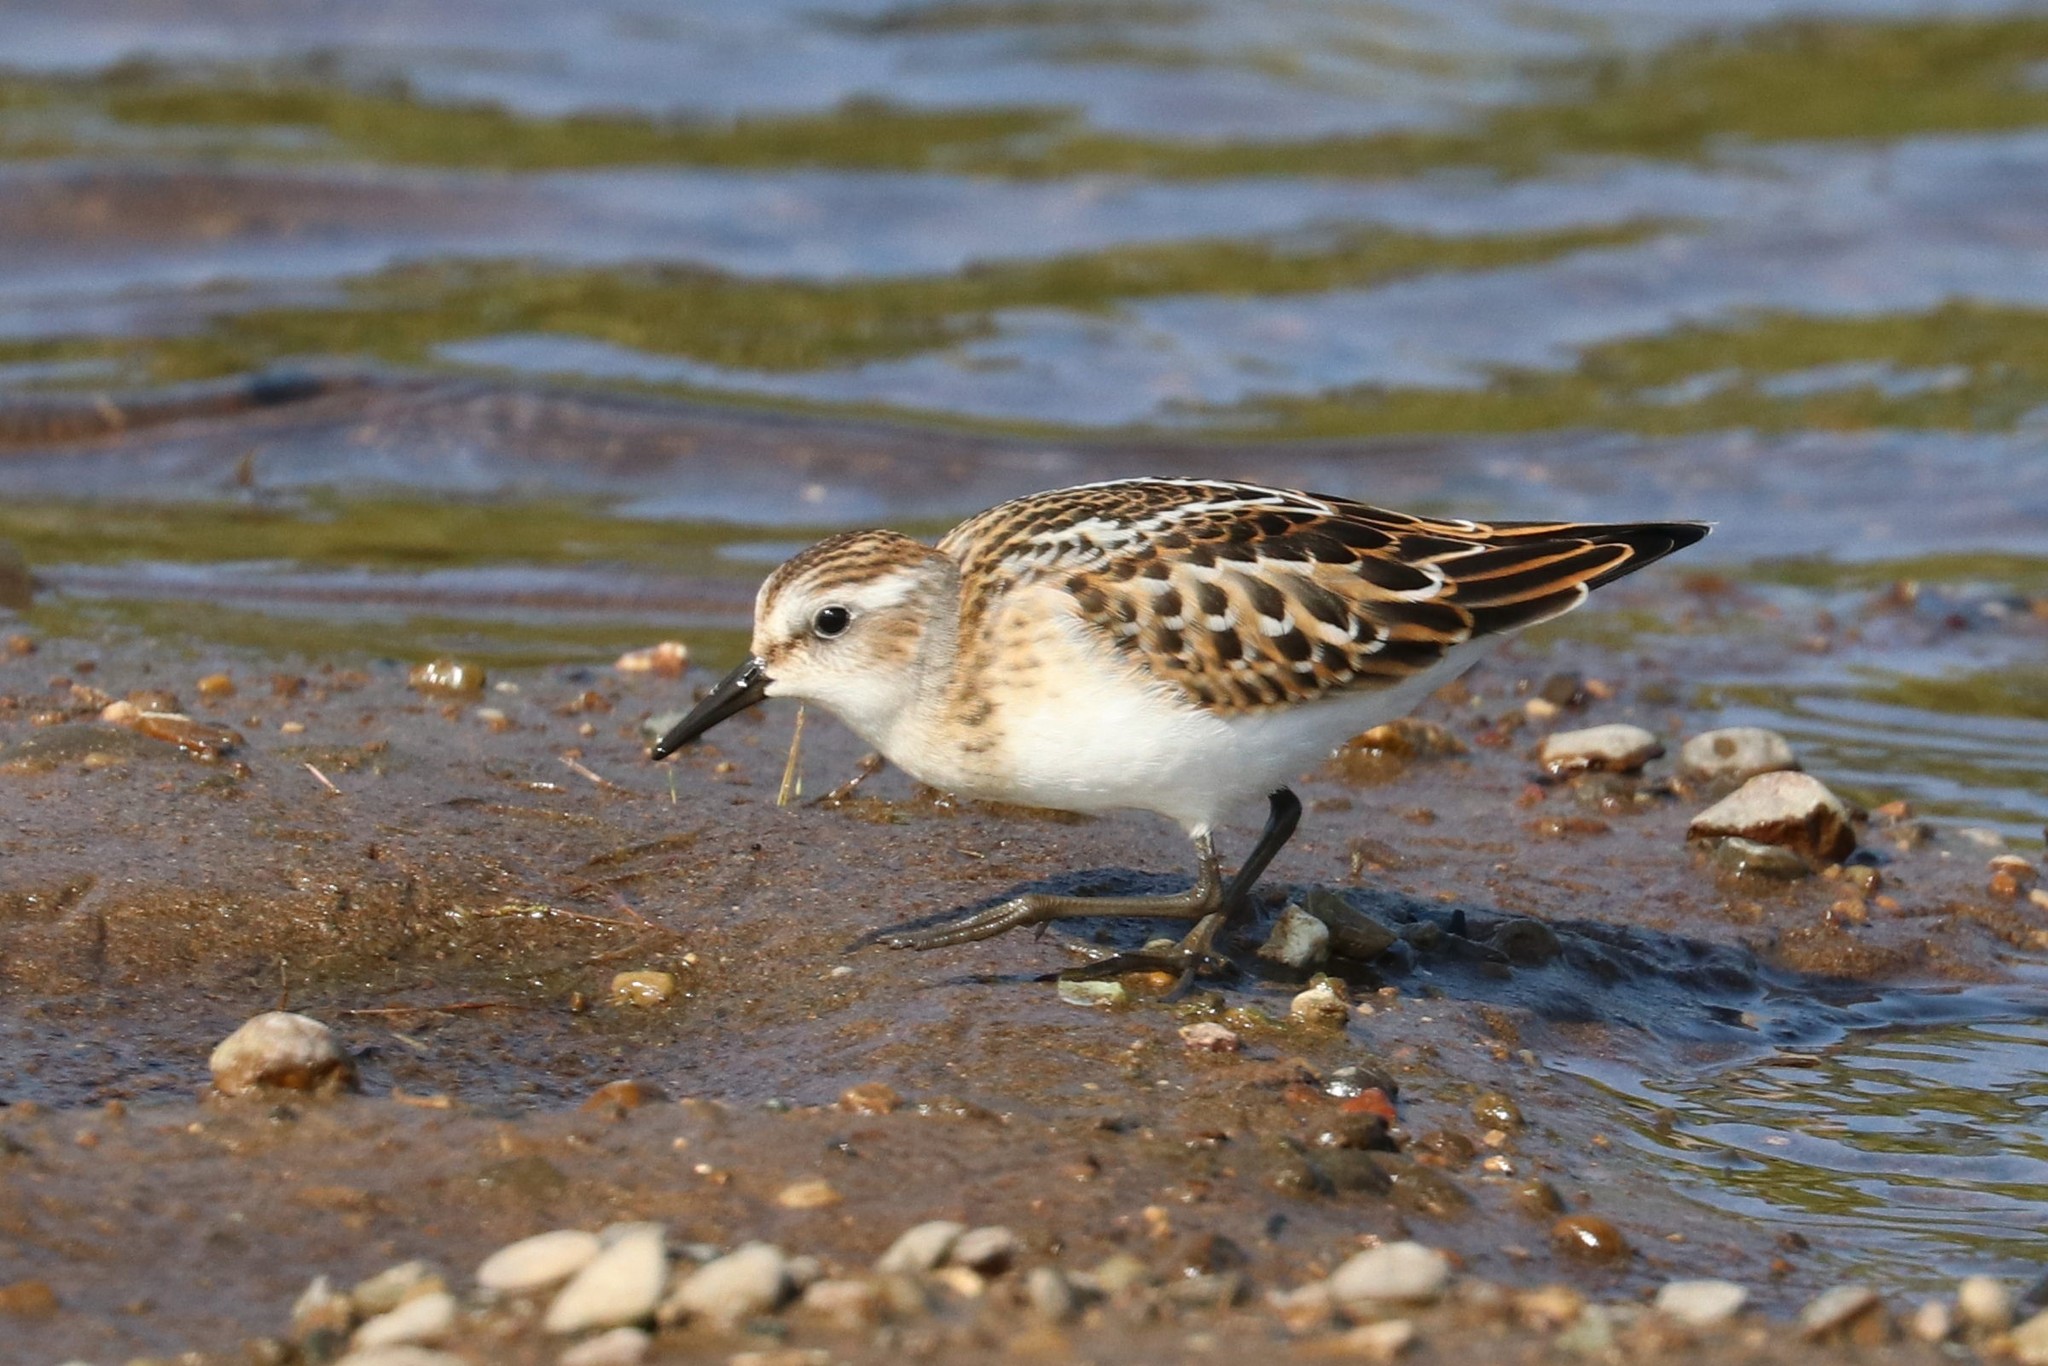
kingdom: Animalia
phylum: Chordata
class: Aves
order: Charadriiformes
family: Scolopacidae
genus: Calidris
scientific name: Calidris minuta
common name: Little stint
